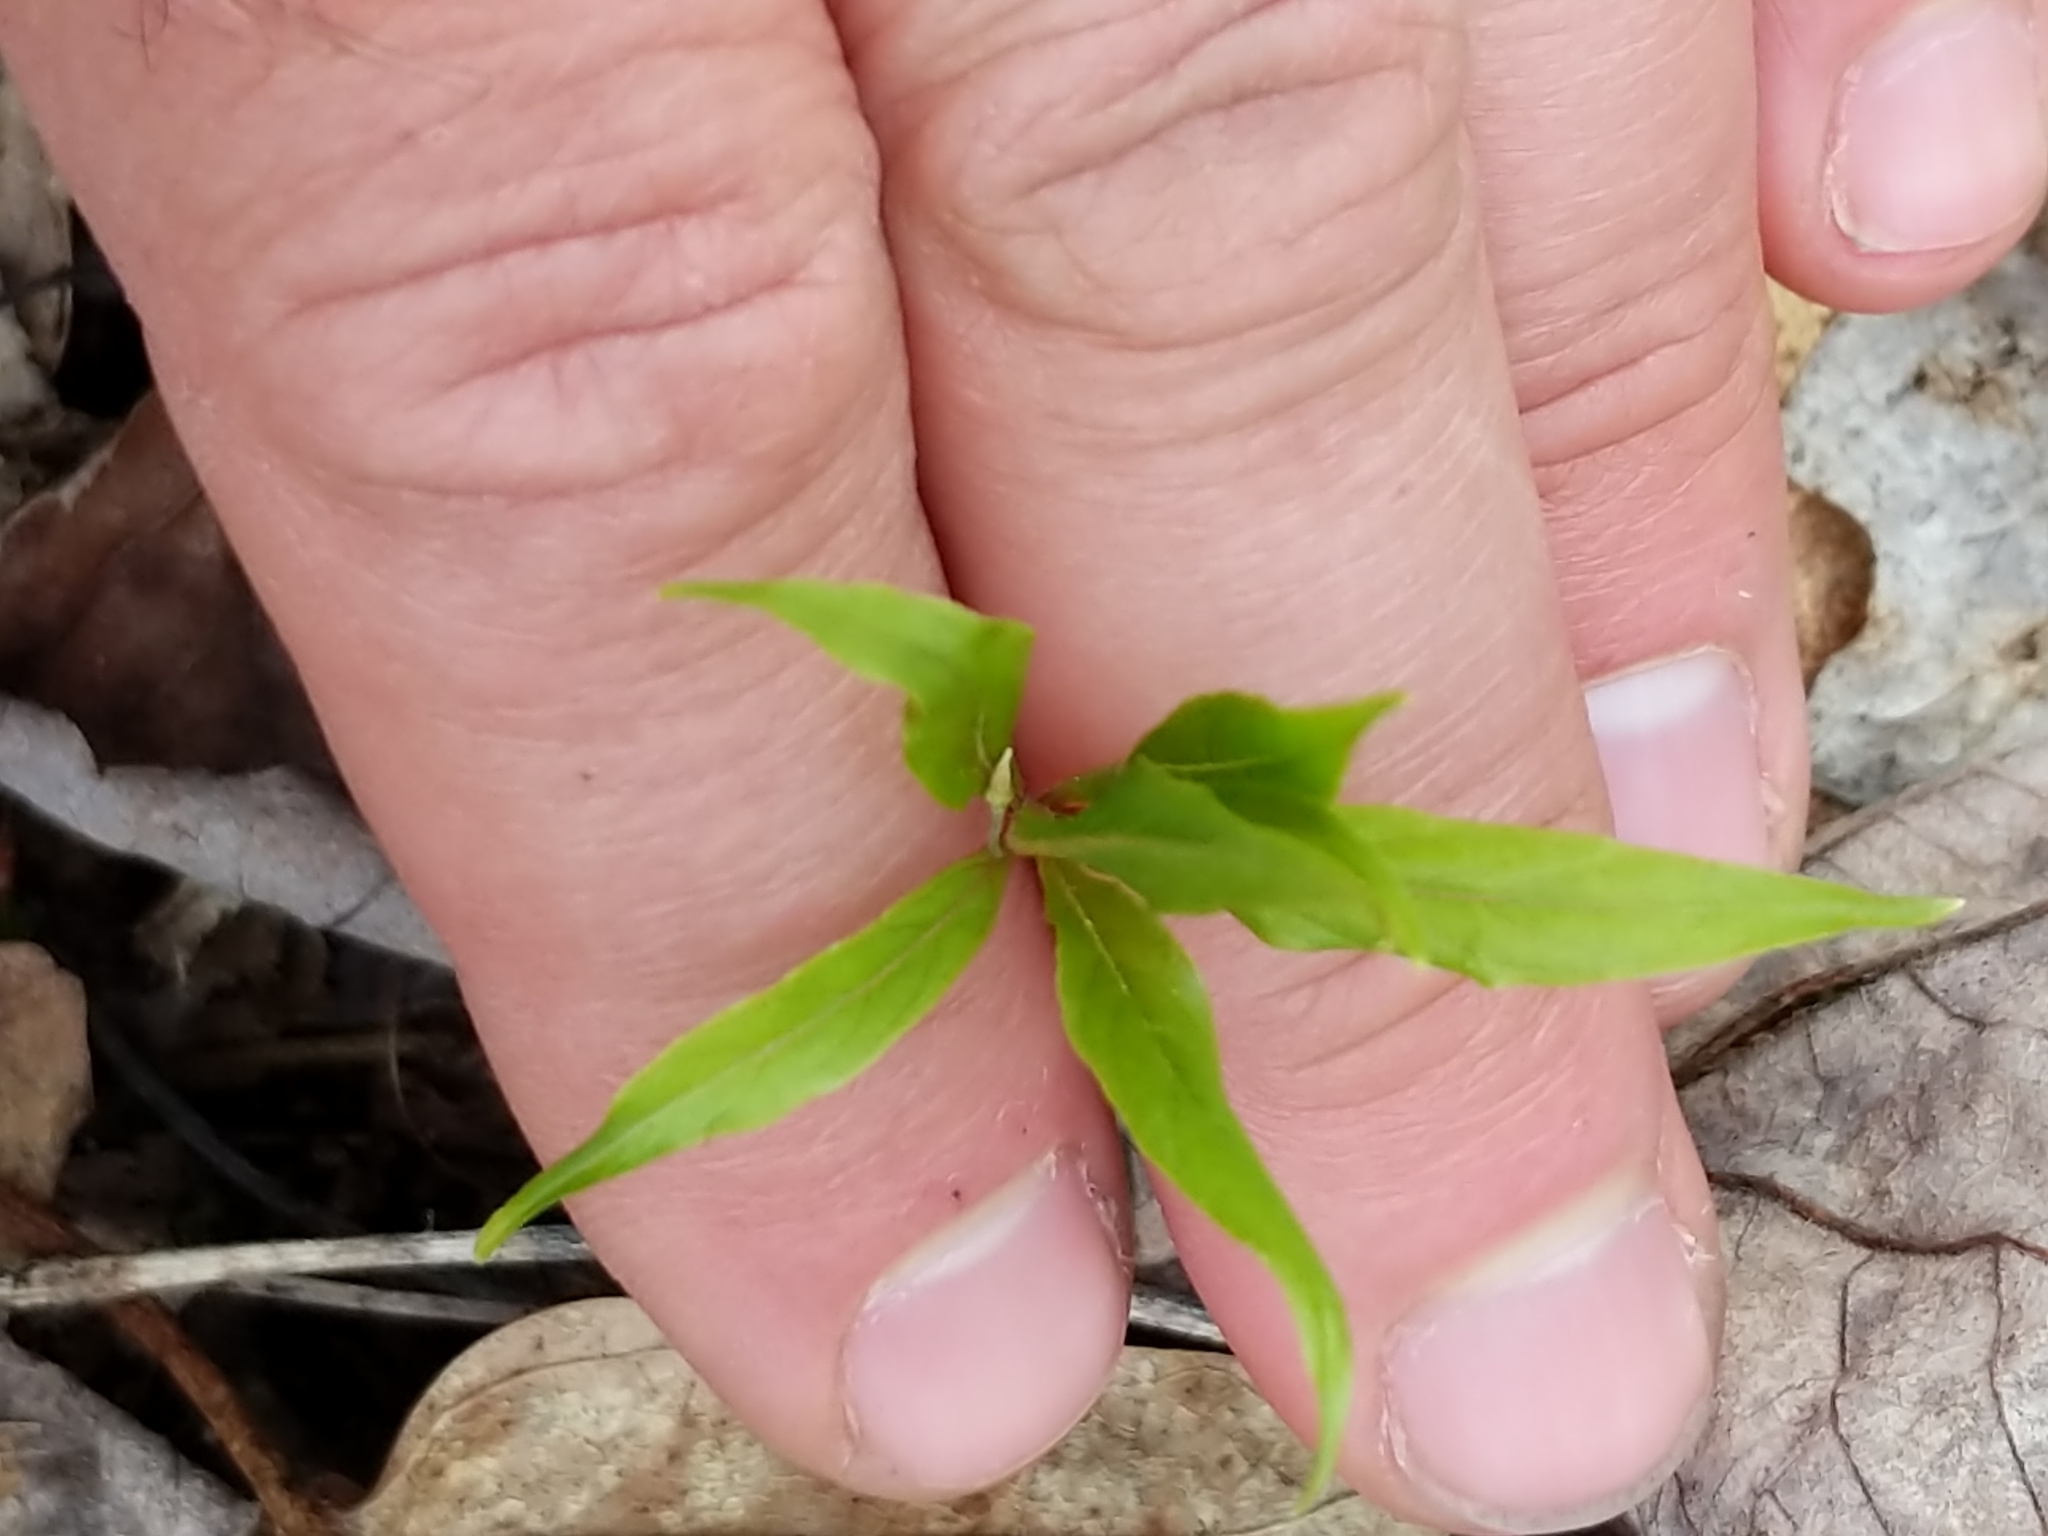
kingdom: Plantae
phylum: Tracheophyta
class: Magnoliopsida
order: Ericales
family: Primulaceae
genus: Lysimachia
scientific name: Lysimachia borealis
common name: American starflower
